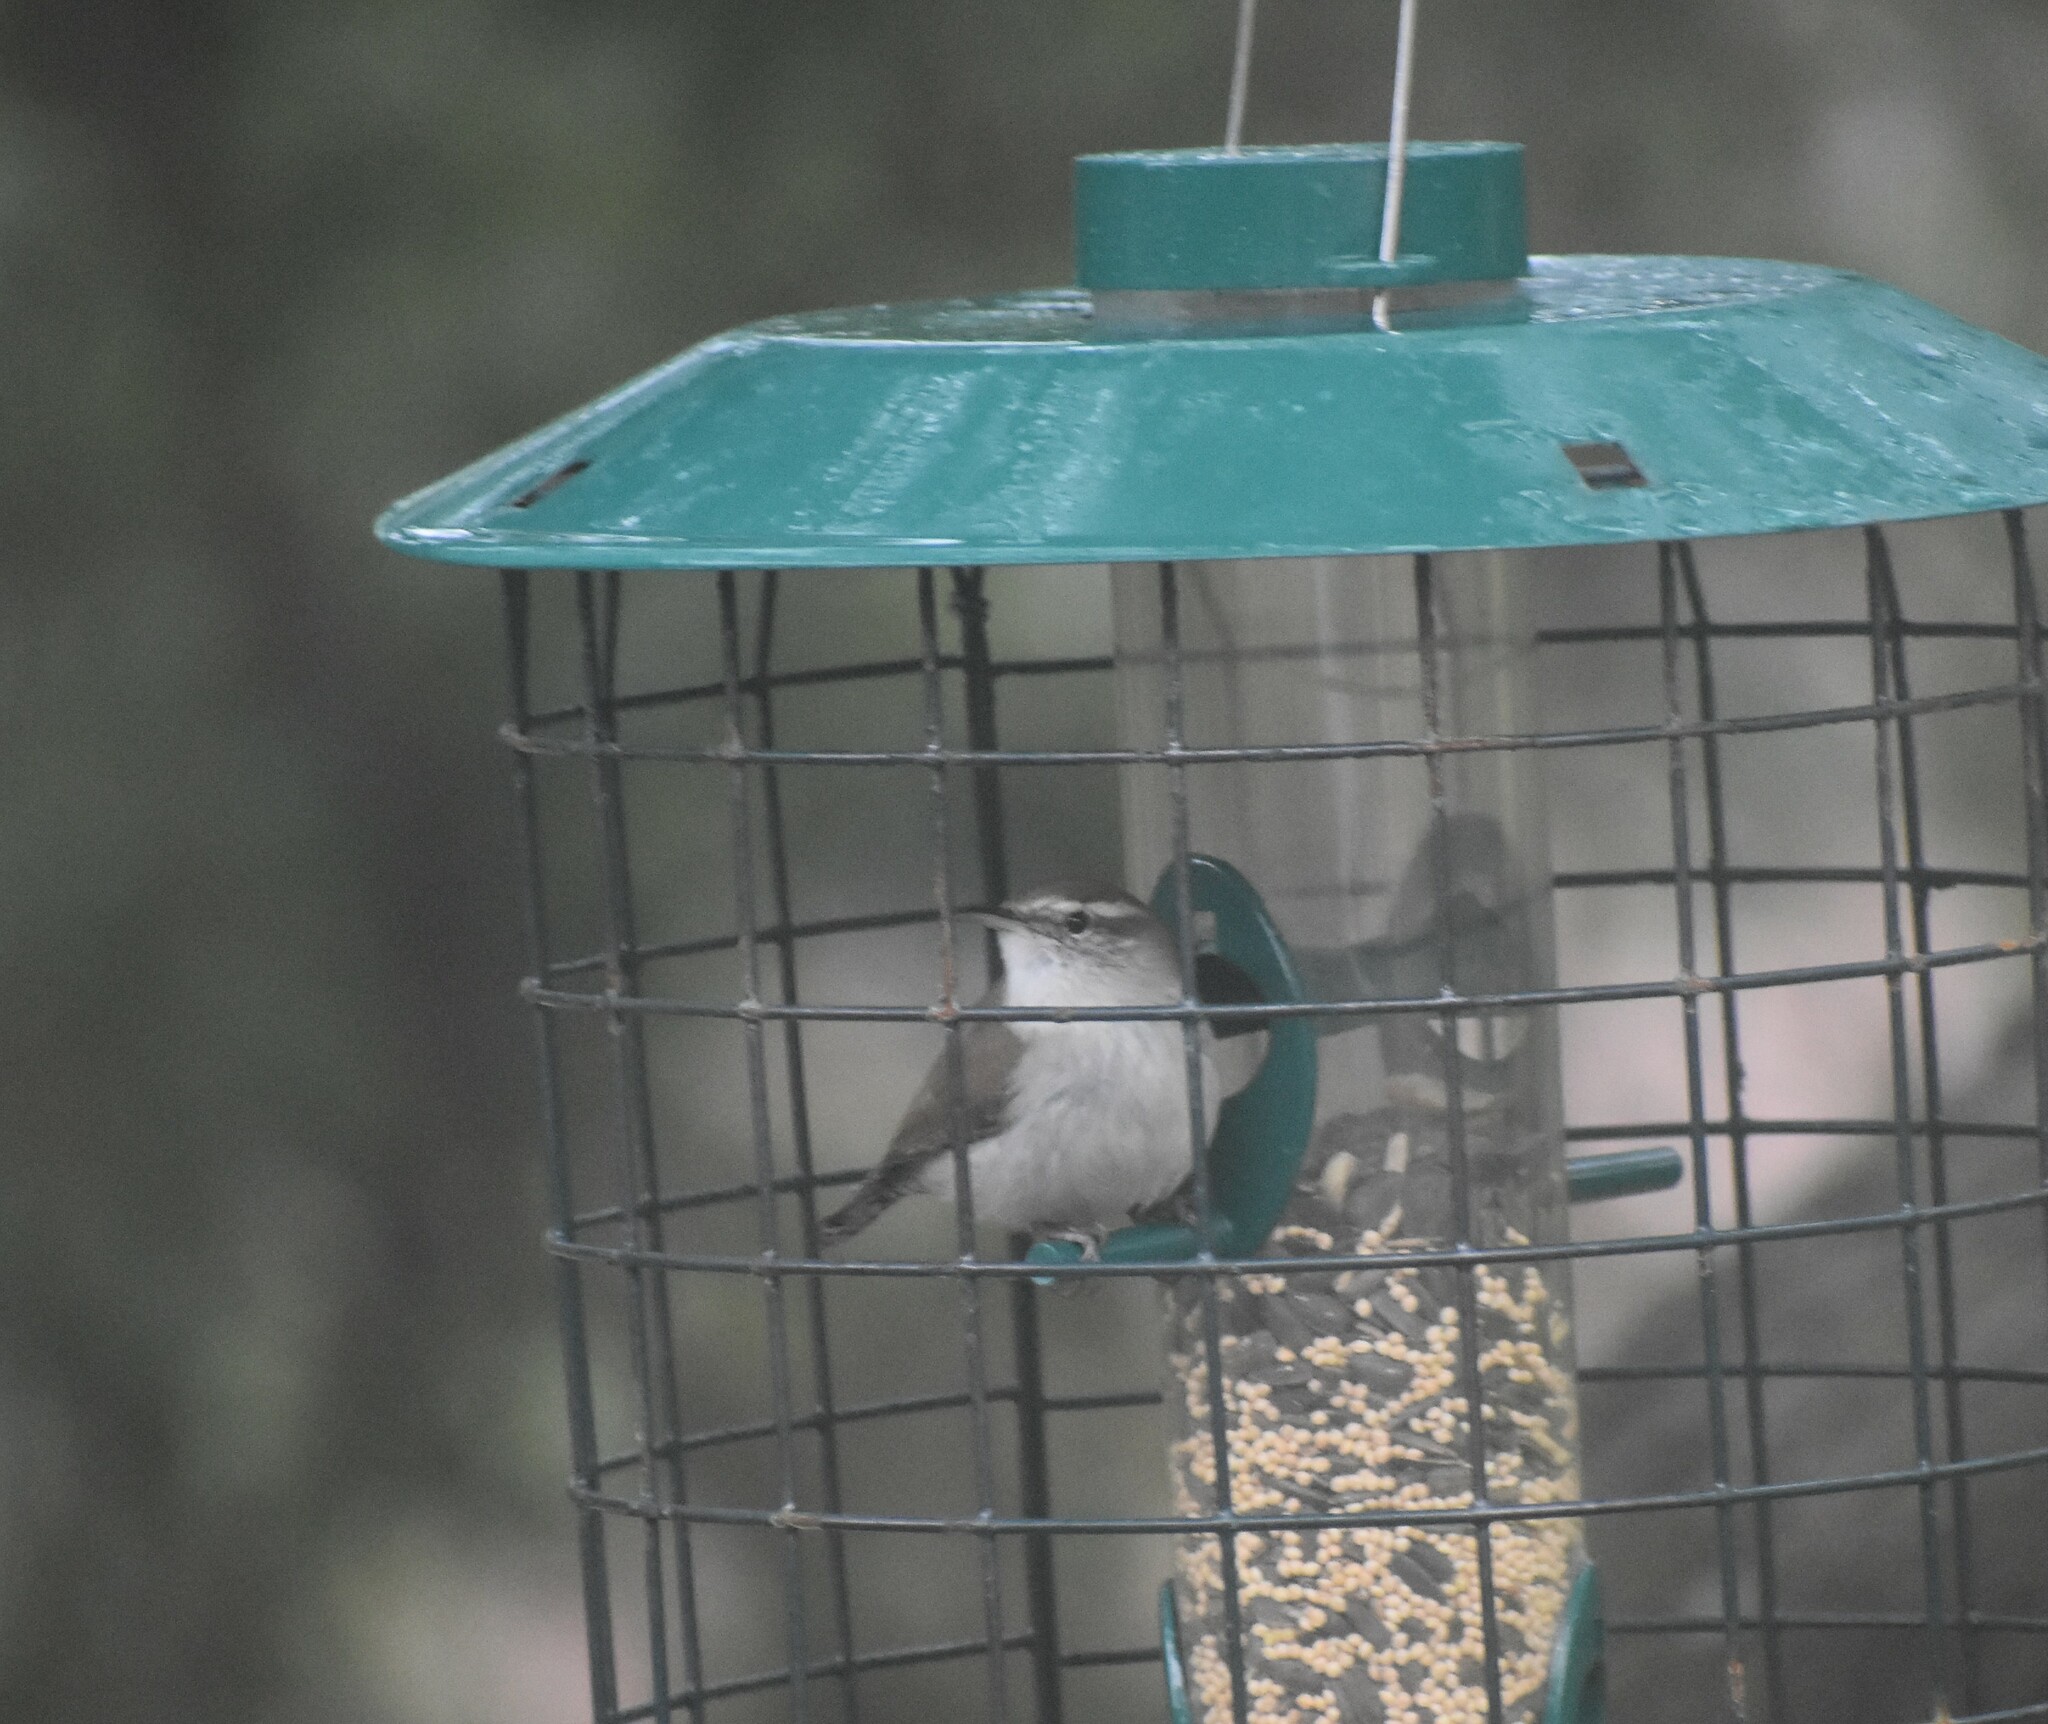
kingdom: Animalia
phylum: Chordata
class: Aves
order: Passeriformes
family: Troglodytidae
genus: Thryomanes
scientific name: Thryomanes bewickii
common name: Bewick's wren
